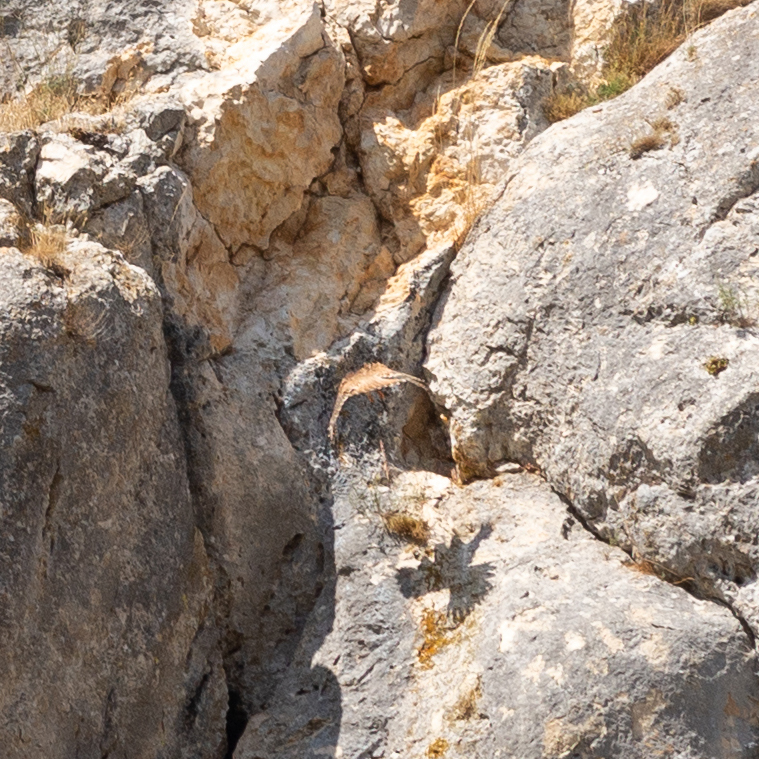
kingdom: Animalia
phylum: Chordata
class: Aves
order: Falconiformes
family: Falconidae
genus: Falco
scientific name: Falco tinnunculus
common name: Common kestrel
